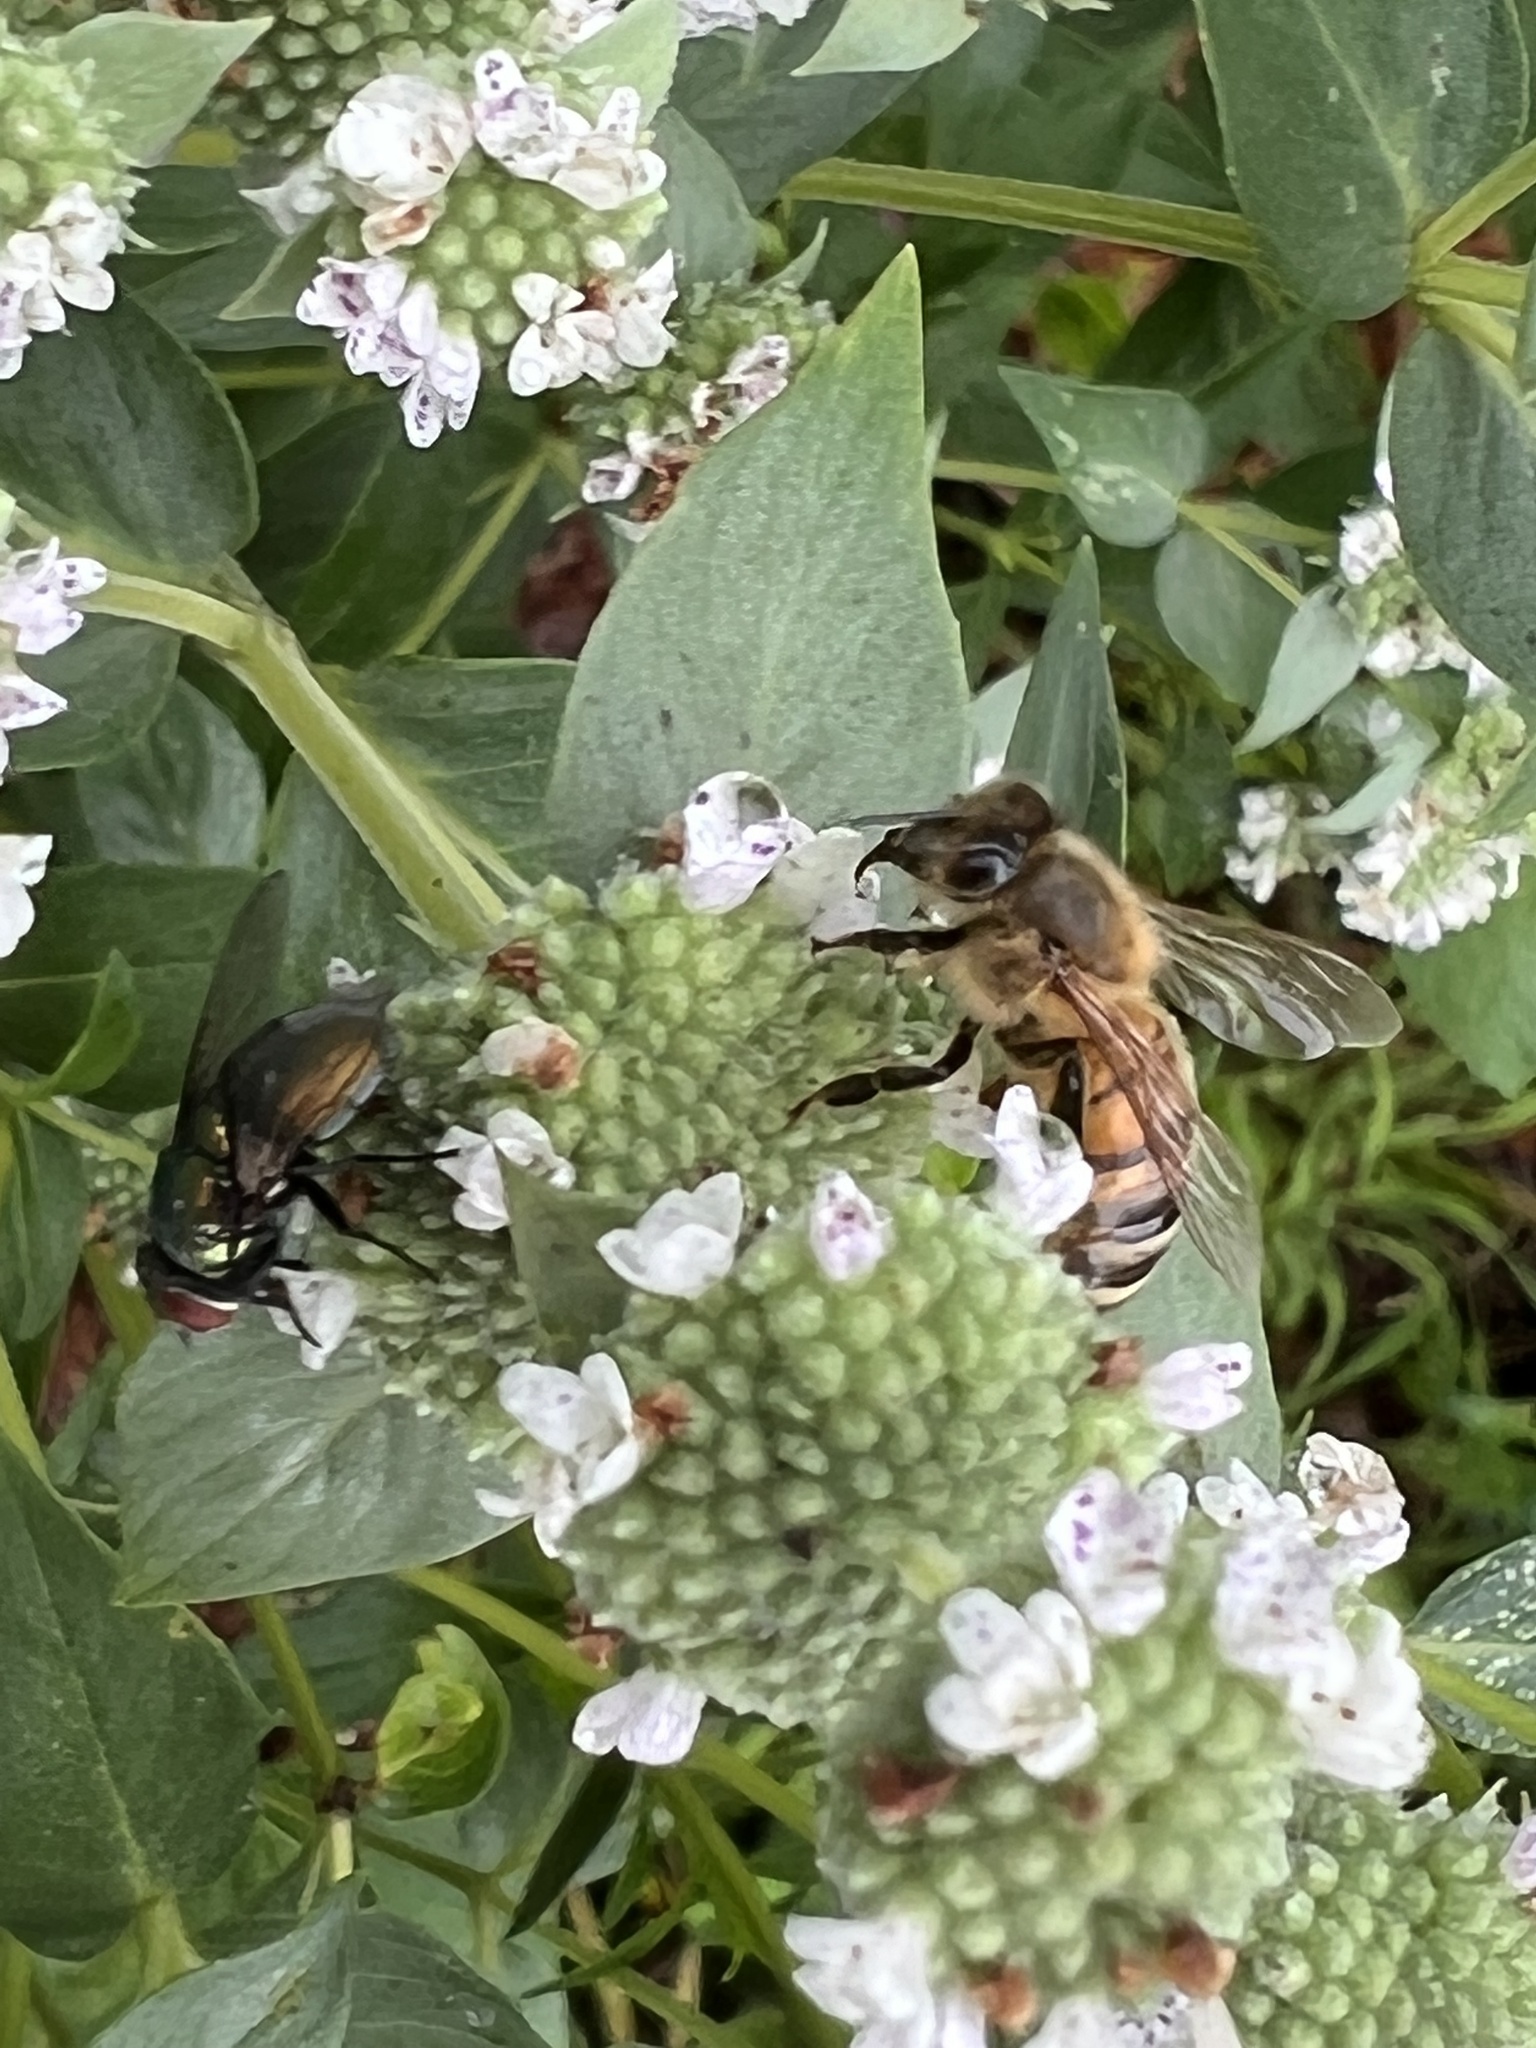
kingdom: Animalia
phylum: Arthropoda
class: Insecta
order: Hymenoptera
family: Apidae
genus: Apis
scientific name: Apis mellifera
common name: Honey bee
